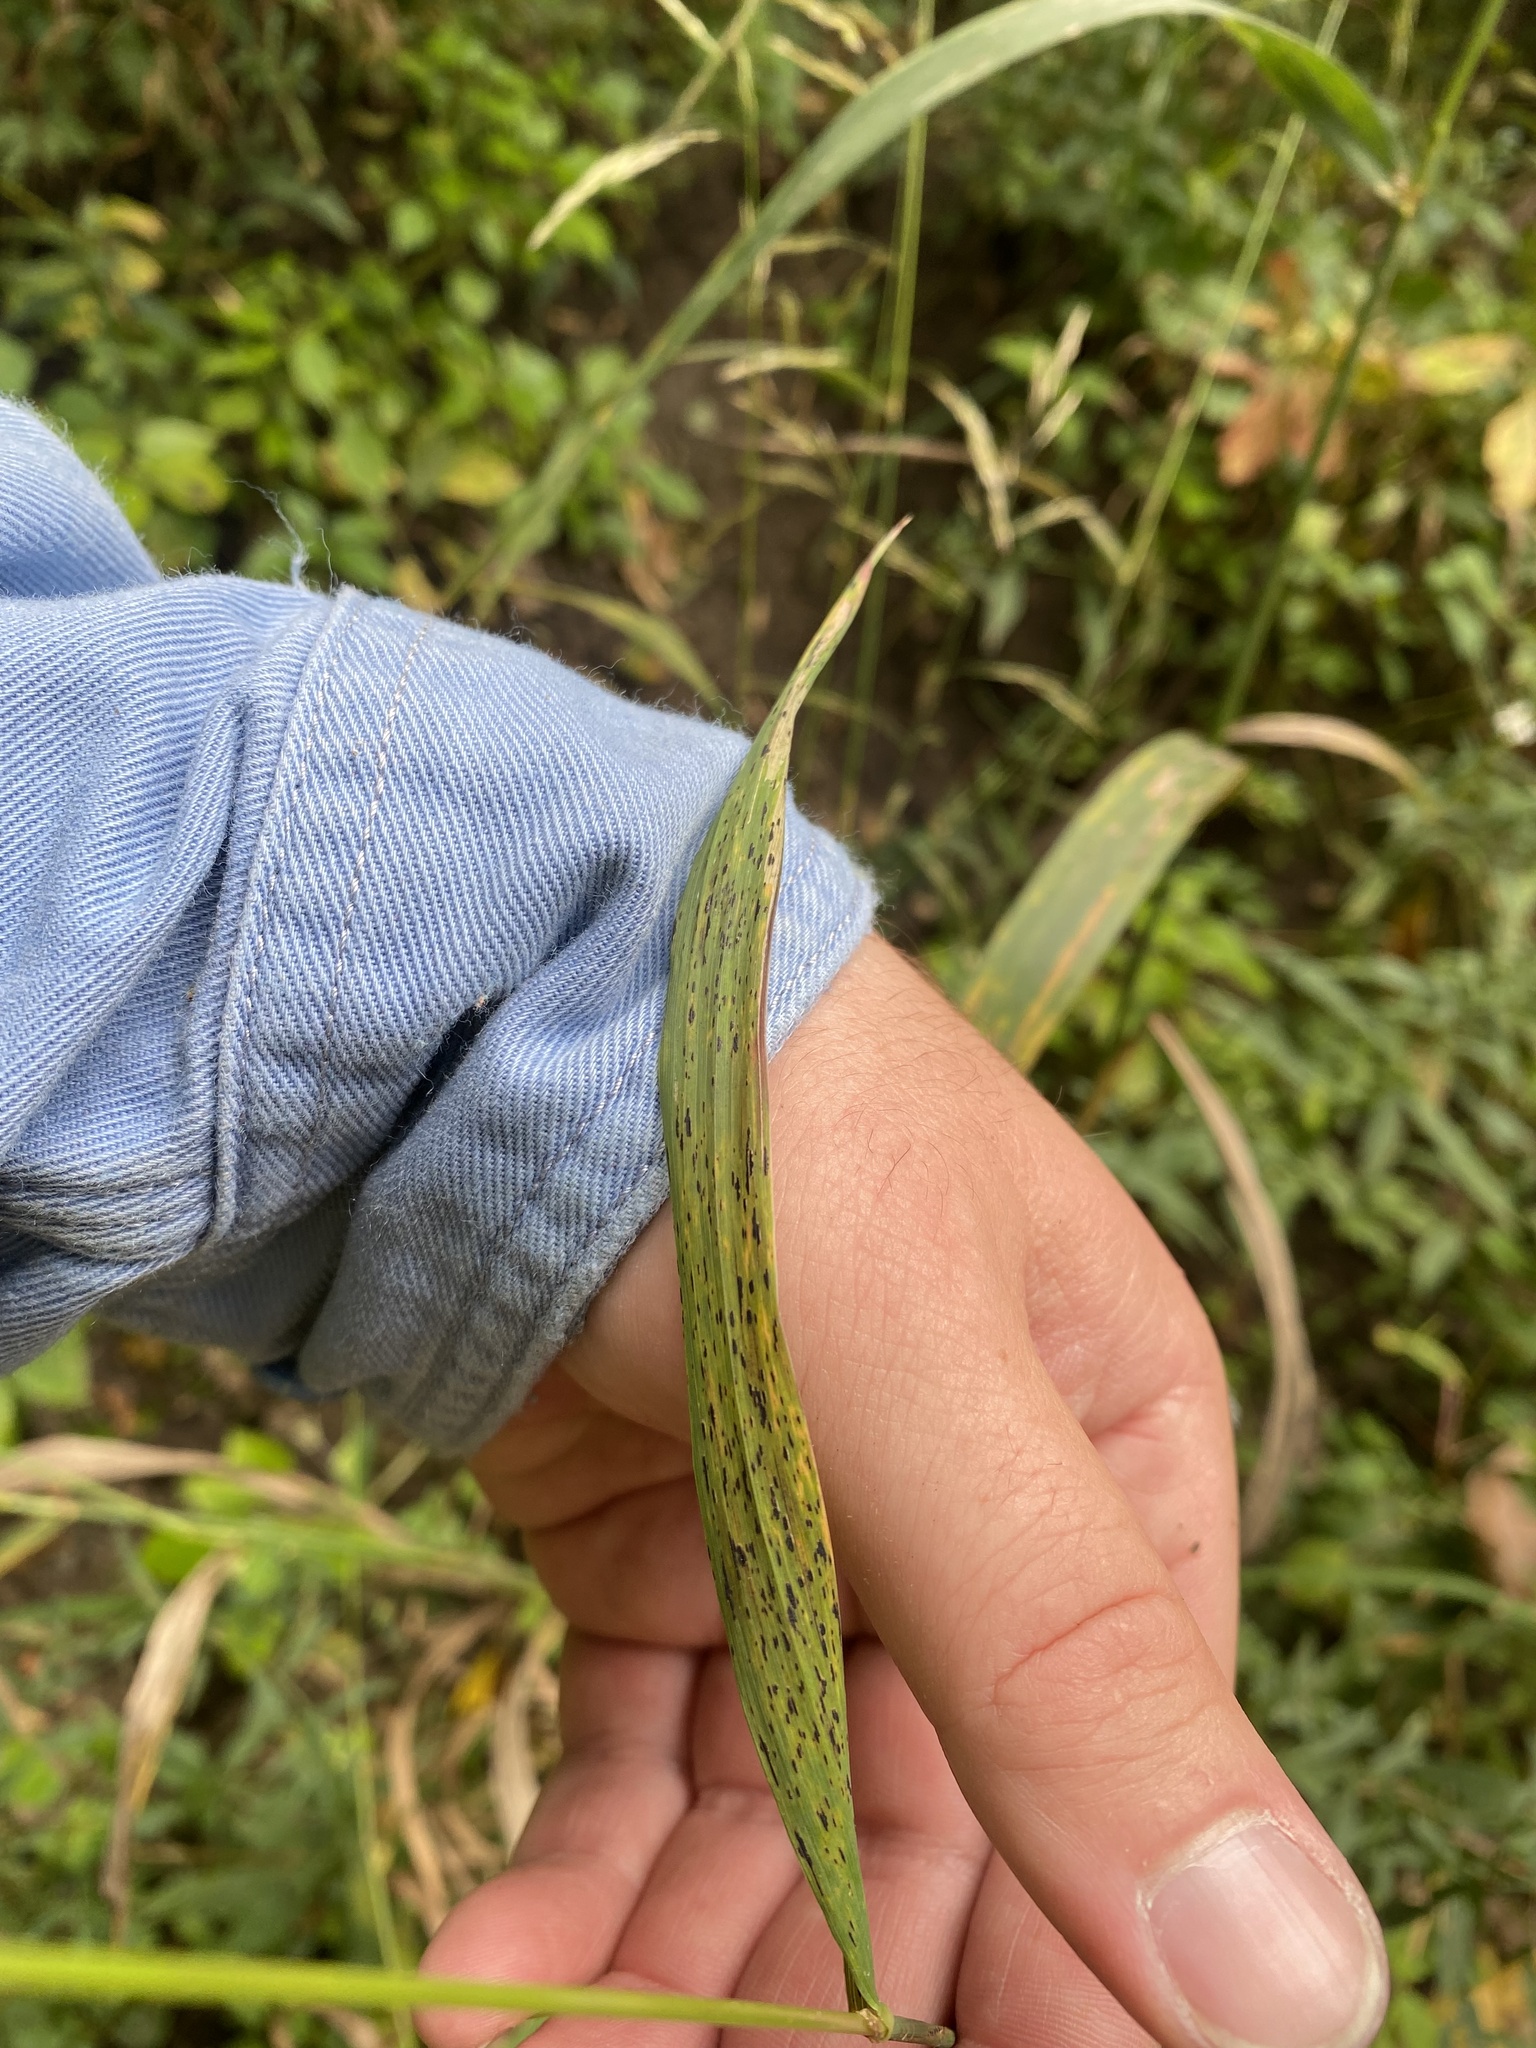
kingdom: Plantae
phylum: Tracheophyta
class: Liliopsida
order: Poales
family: Poaceae
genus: Cinna
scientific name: Cinna arundinacea
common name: Stout woodreed
